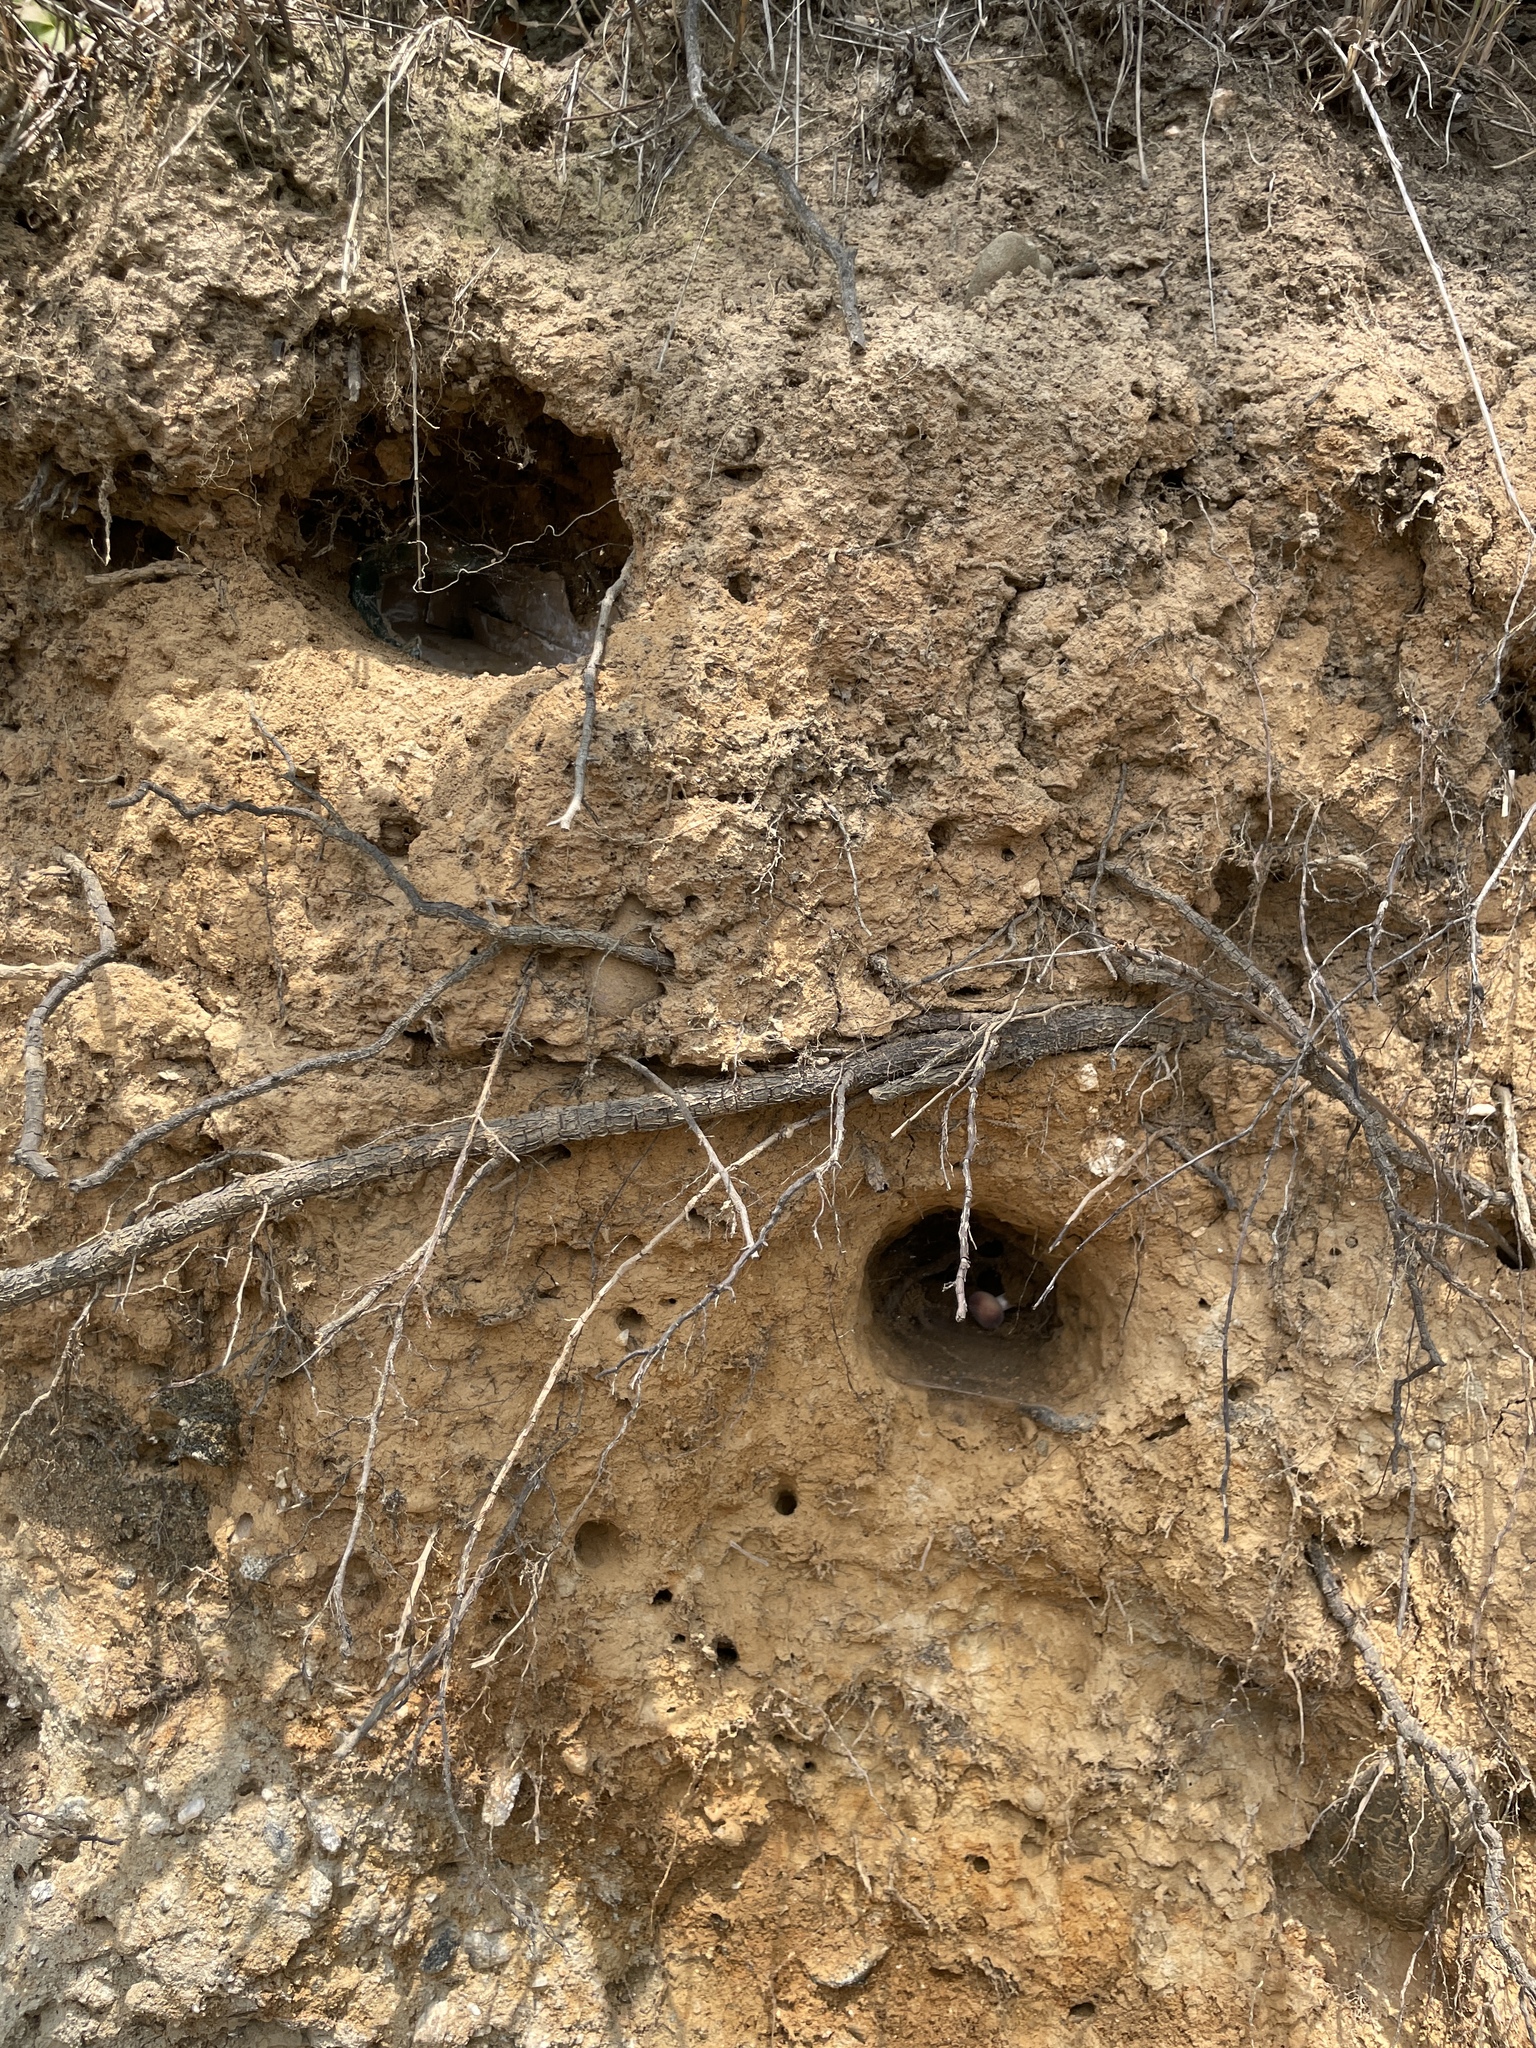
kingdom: Animalia
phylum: Chordata
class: Aves
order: Passeriformes
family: Hirundinidae
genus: Riparia
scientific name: Riparia riparia
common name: Sand martin
